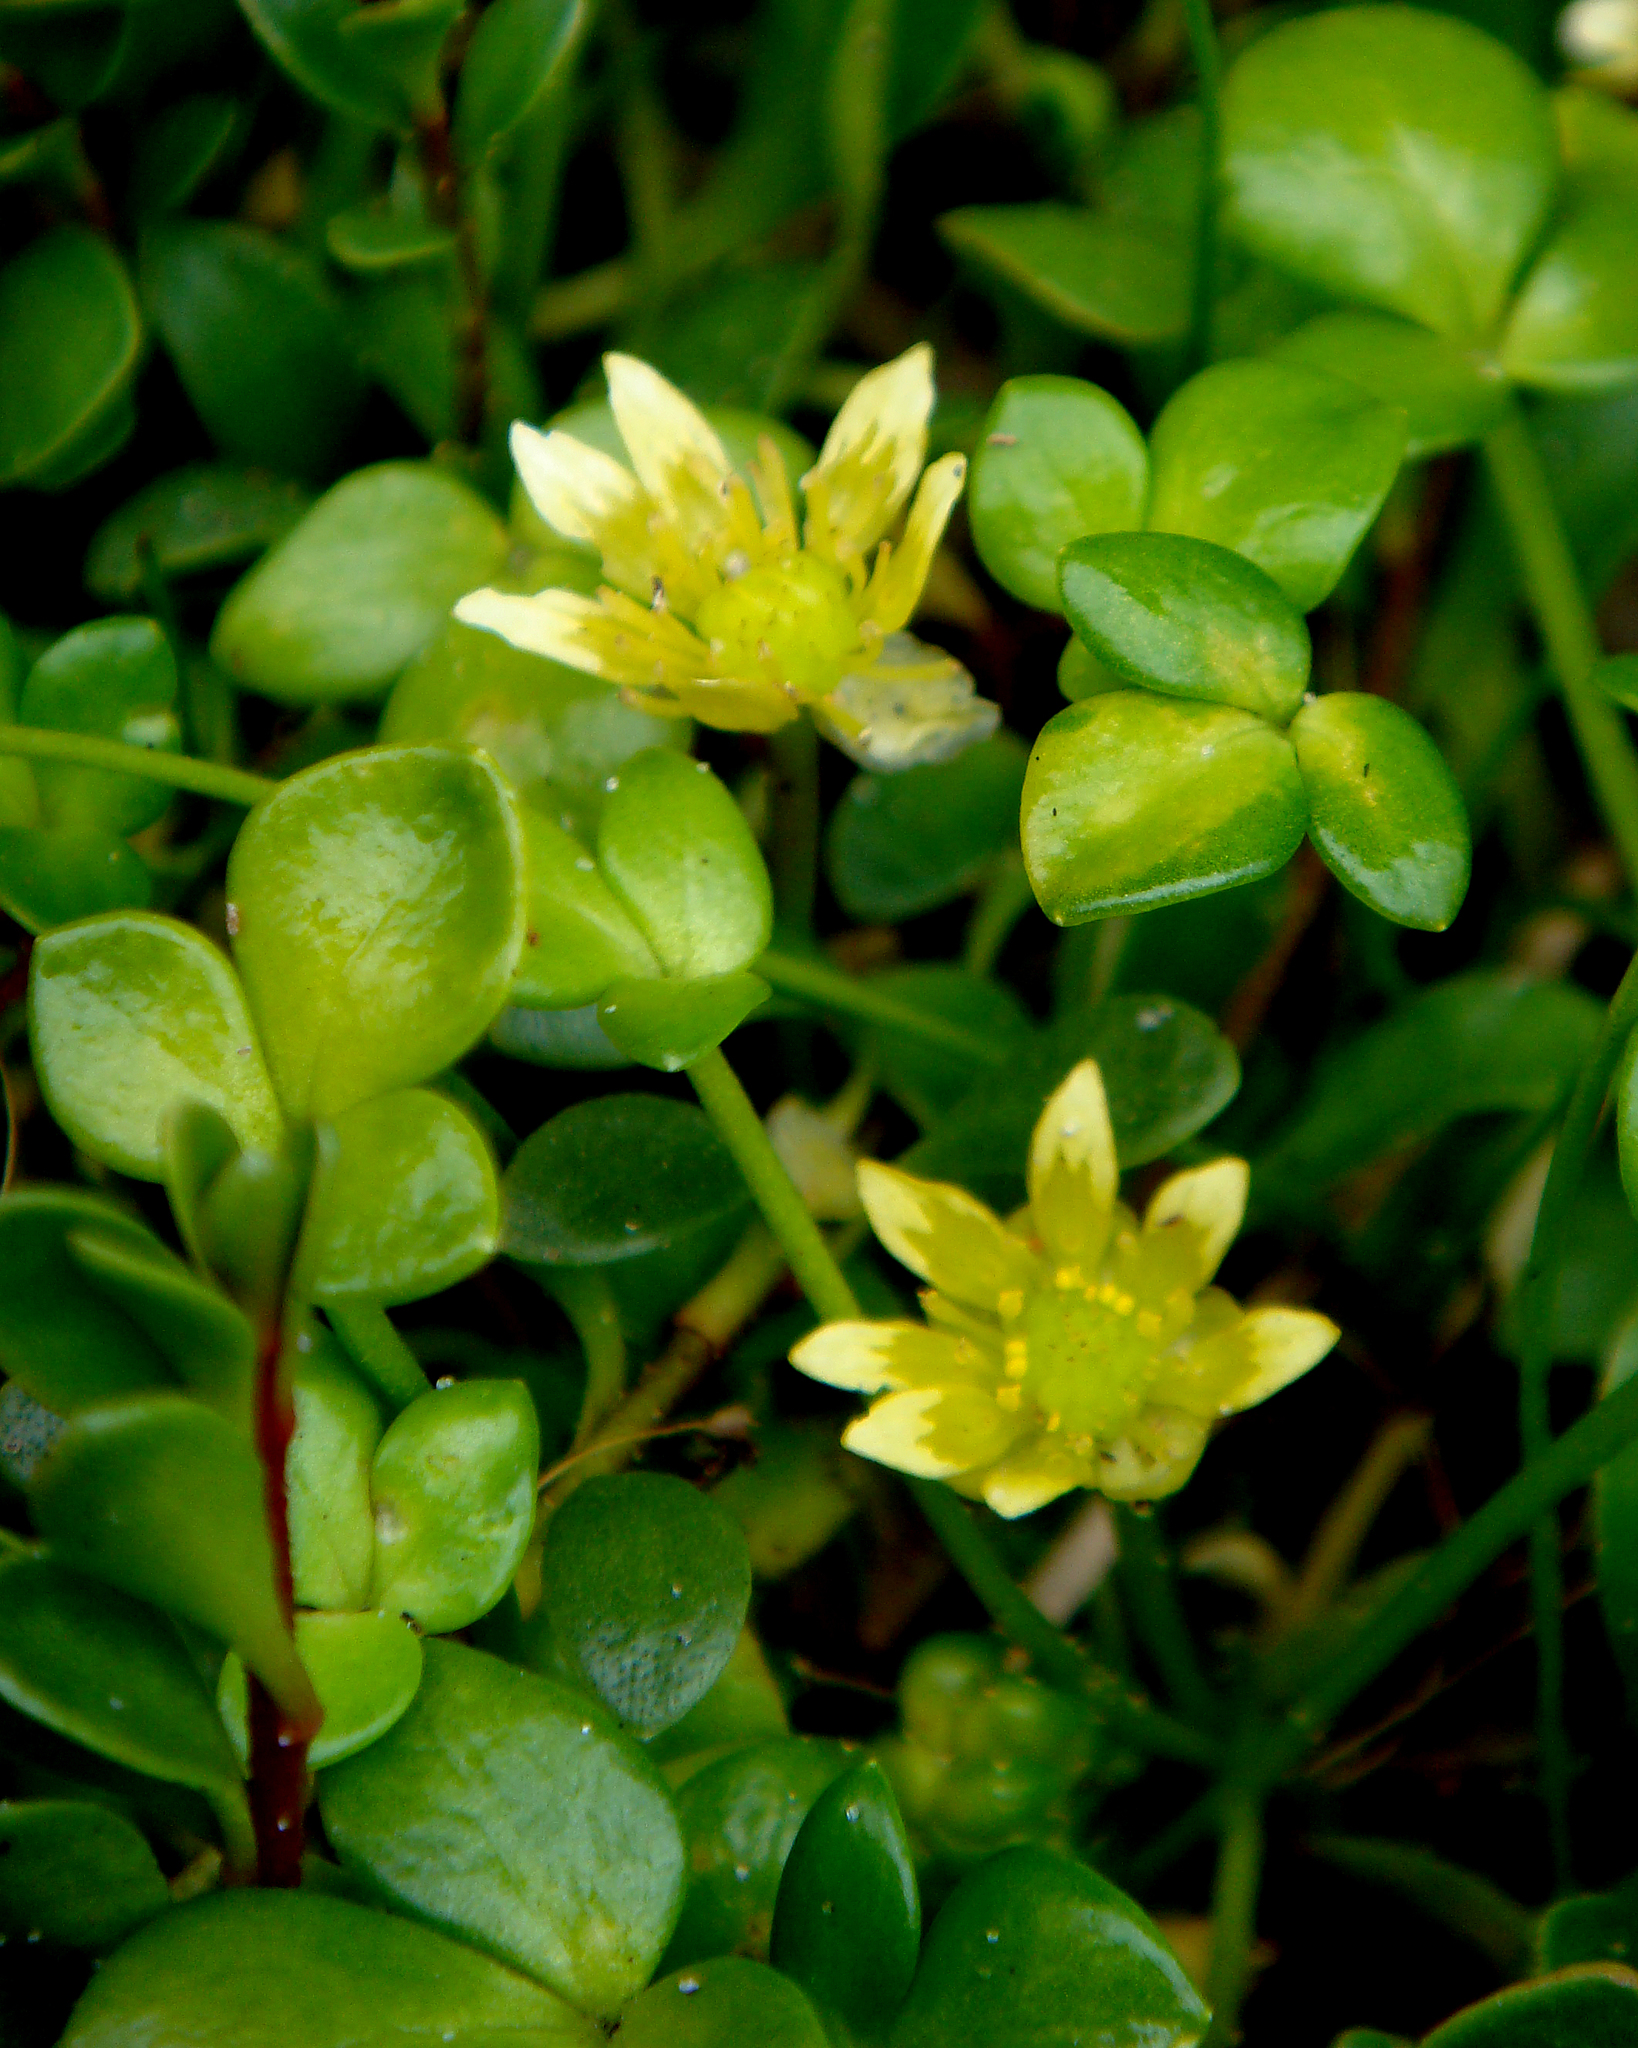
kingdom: Plantae
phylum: Tracheophyta
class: Magnoliopsida
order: Ranunculales
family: Ranunculaceae
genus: Ranunculus
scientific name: Ranunculus acaulis
